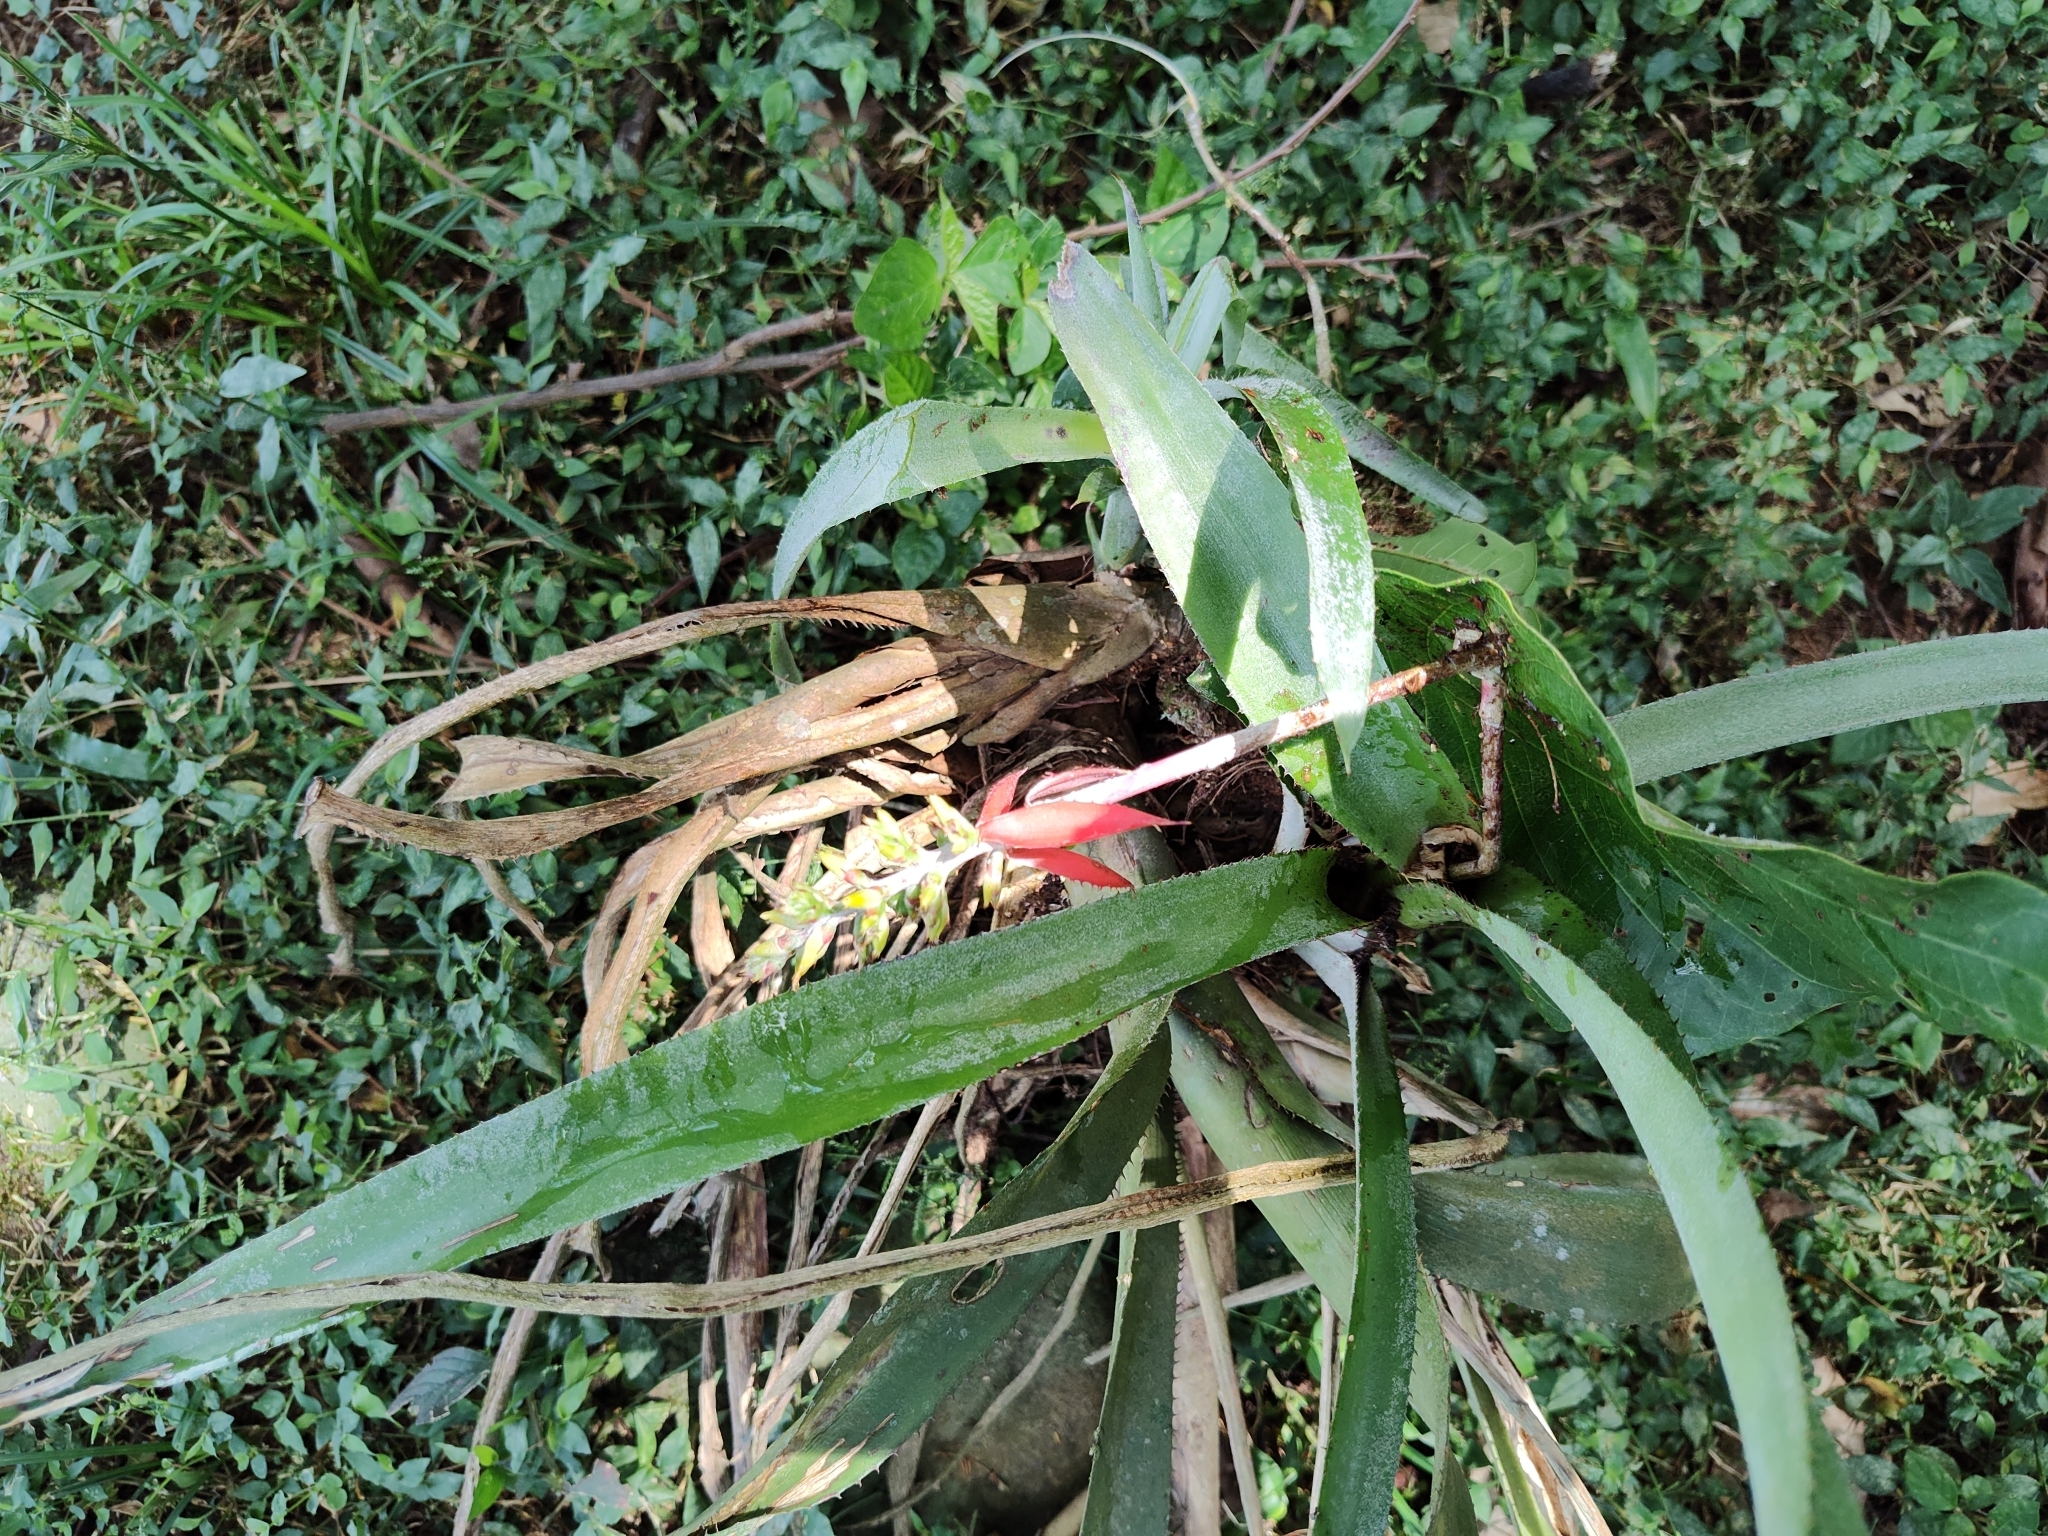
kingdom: Plantae
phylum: Tracheophyta
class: Liliopsida
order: Poales
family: Bromeliaceae
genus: Aechmea
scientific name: Aechmea angustifolia
